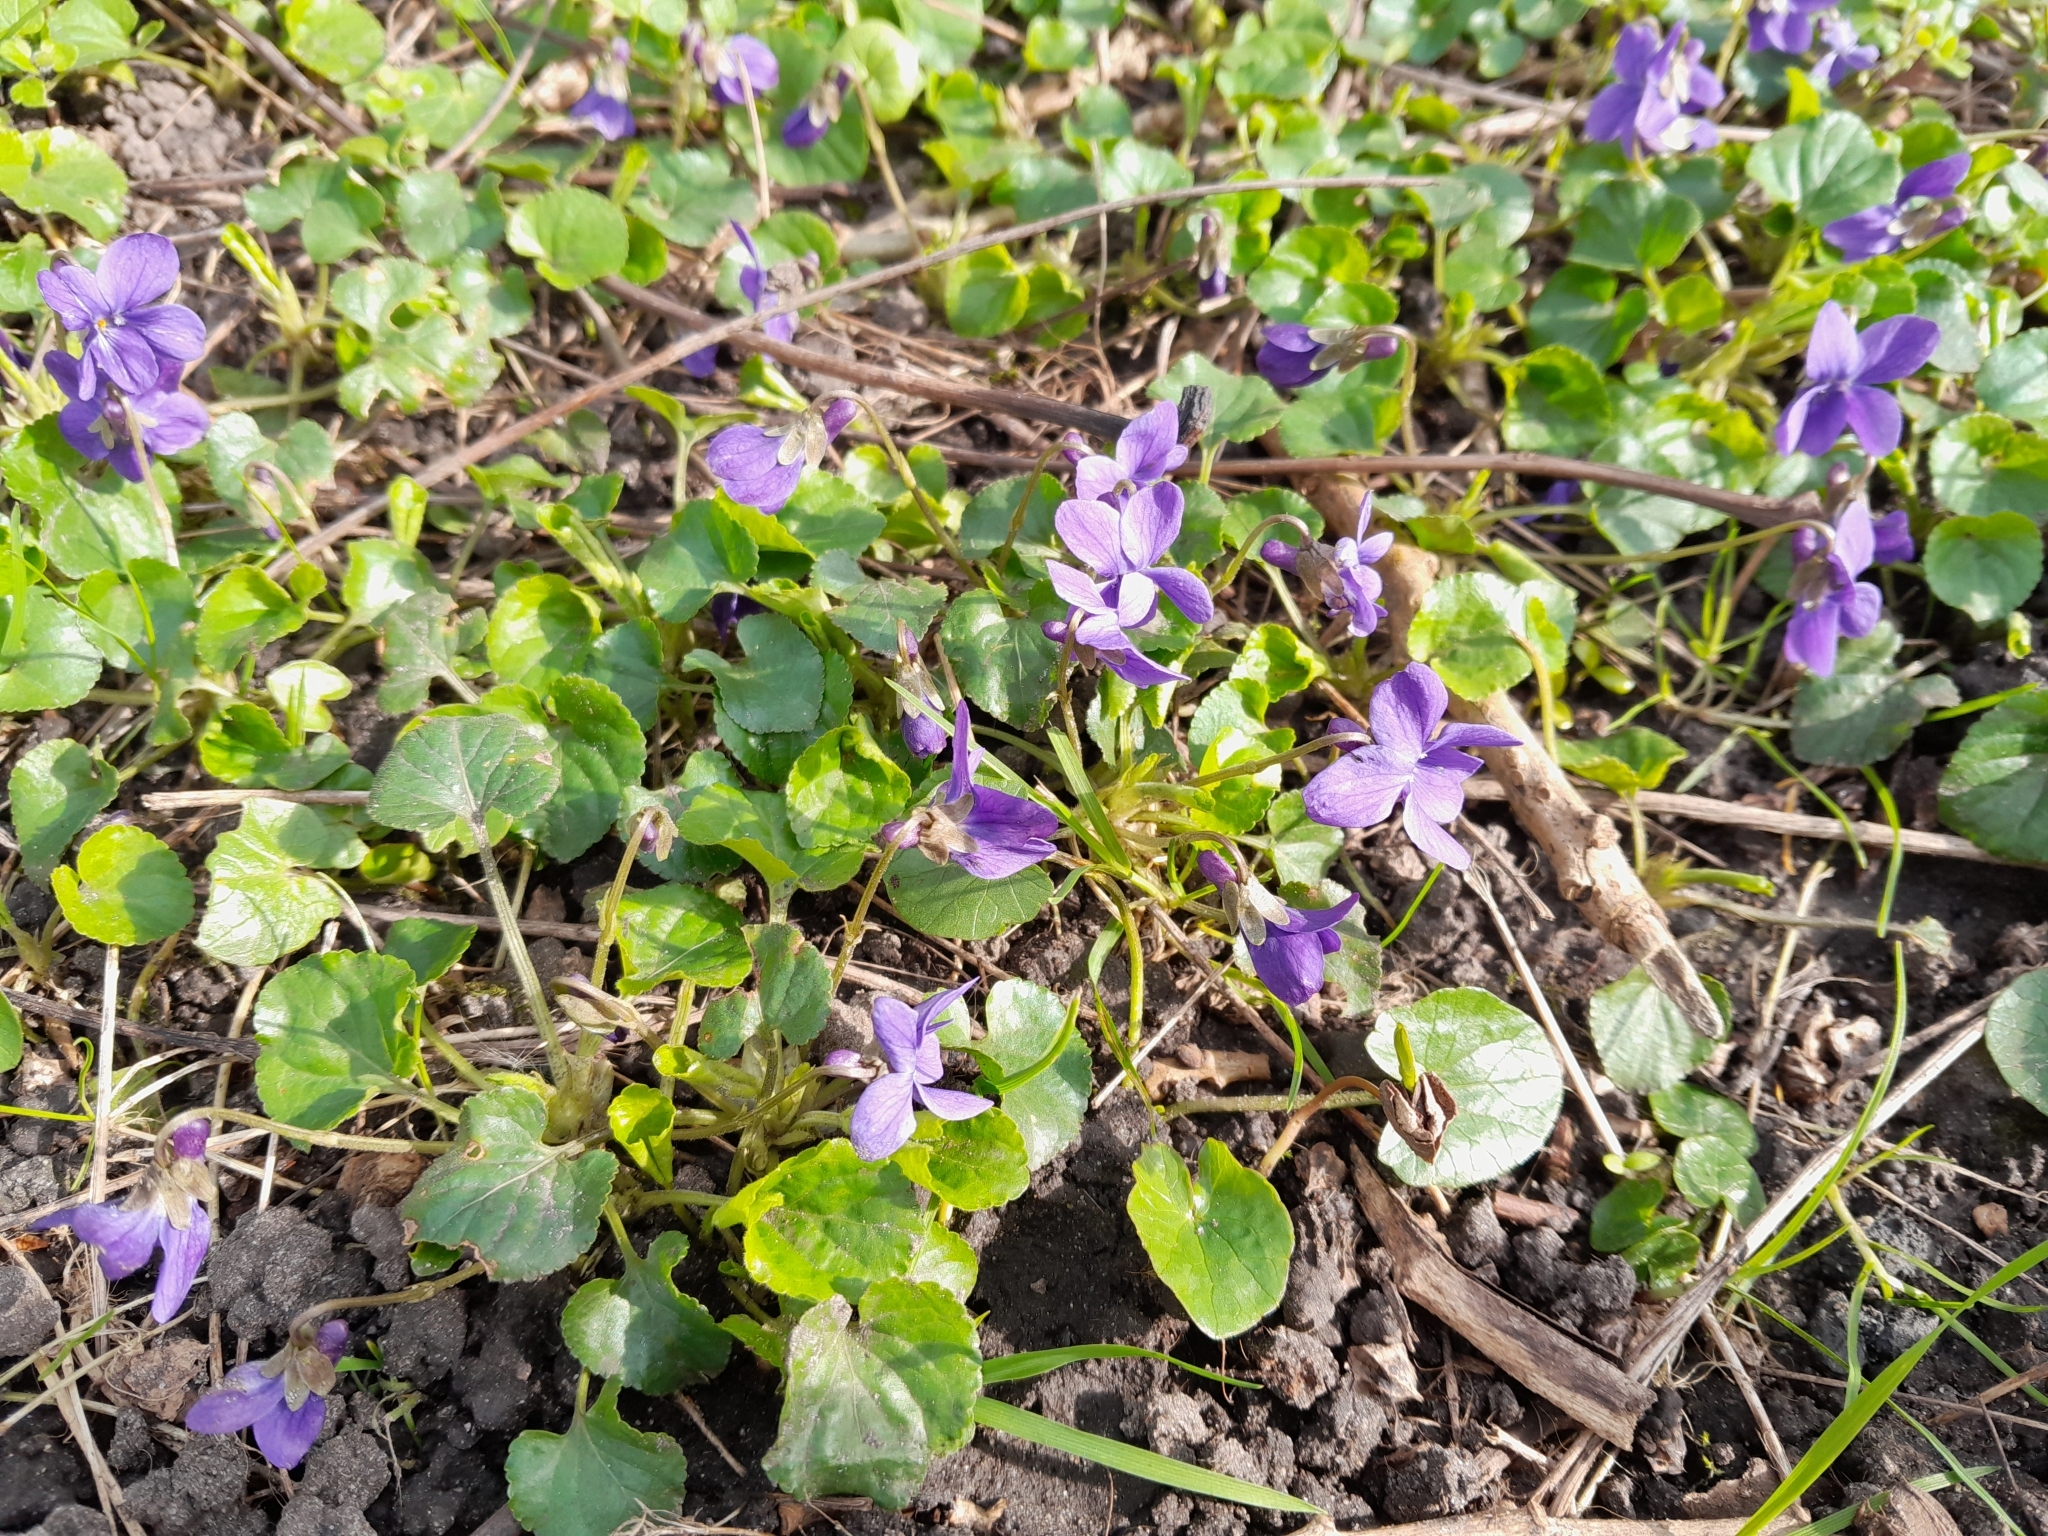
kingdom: Plantae
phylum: Tracheophyta
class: Magnoliopsida
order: Malpighiales
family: Violaceae
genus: Viola
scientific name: Viola odorata
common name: Sweet violet
